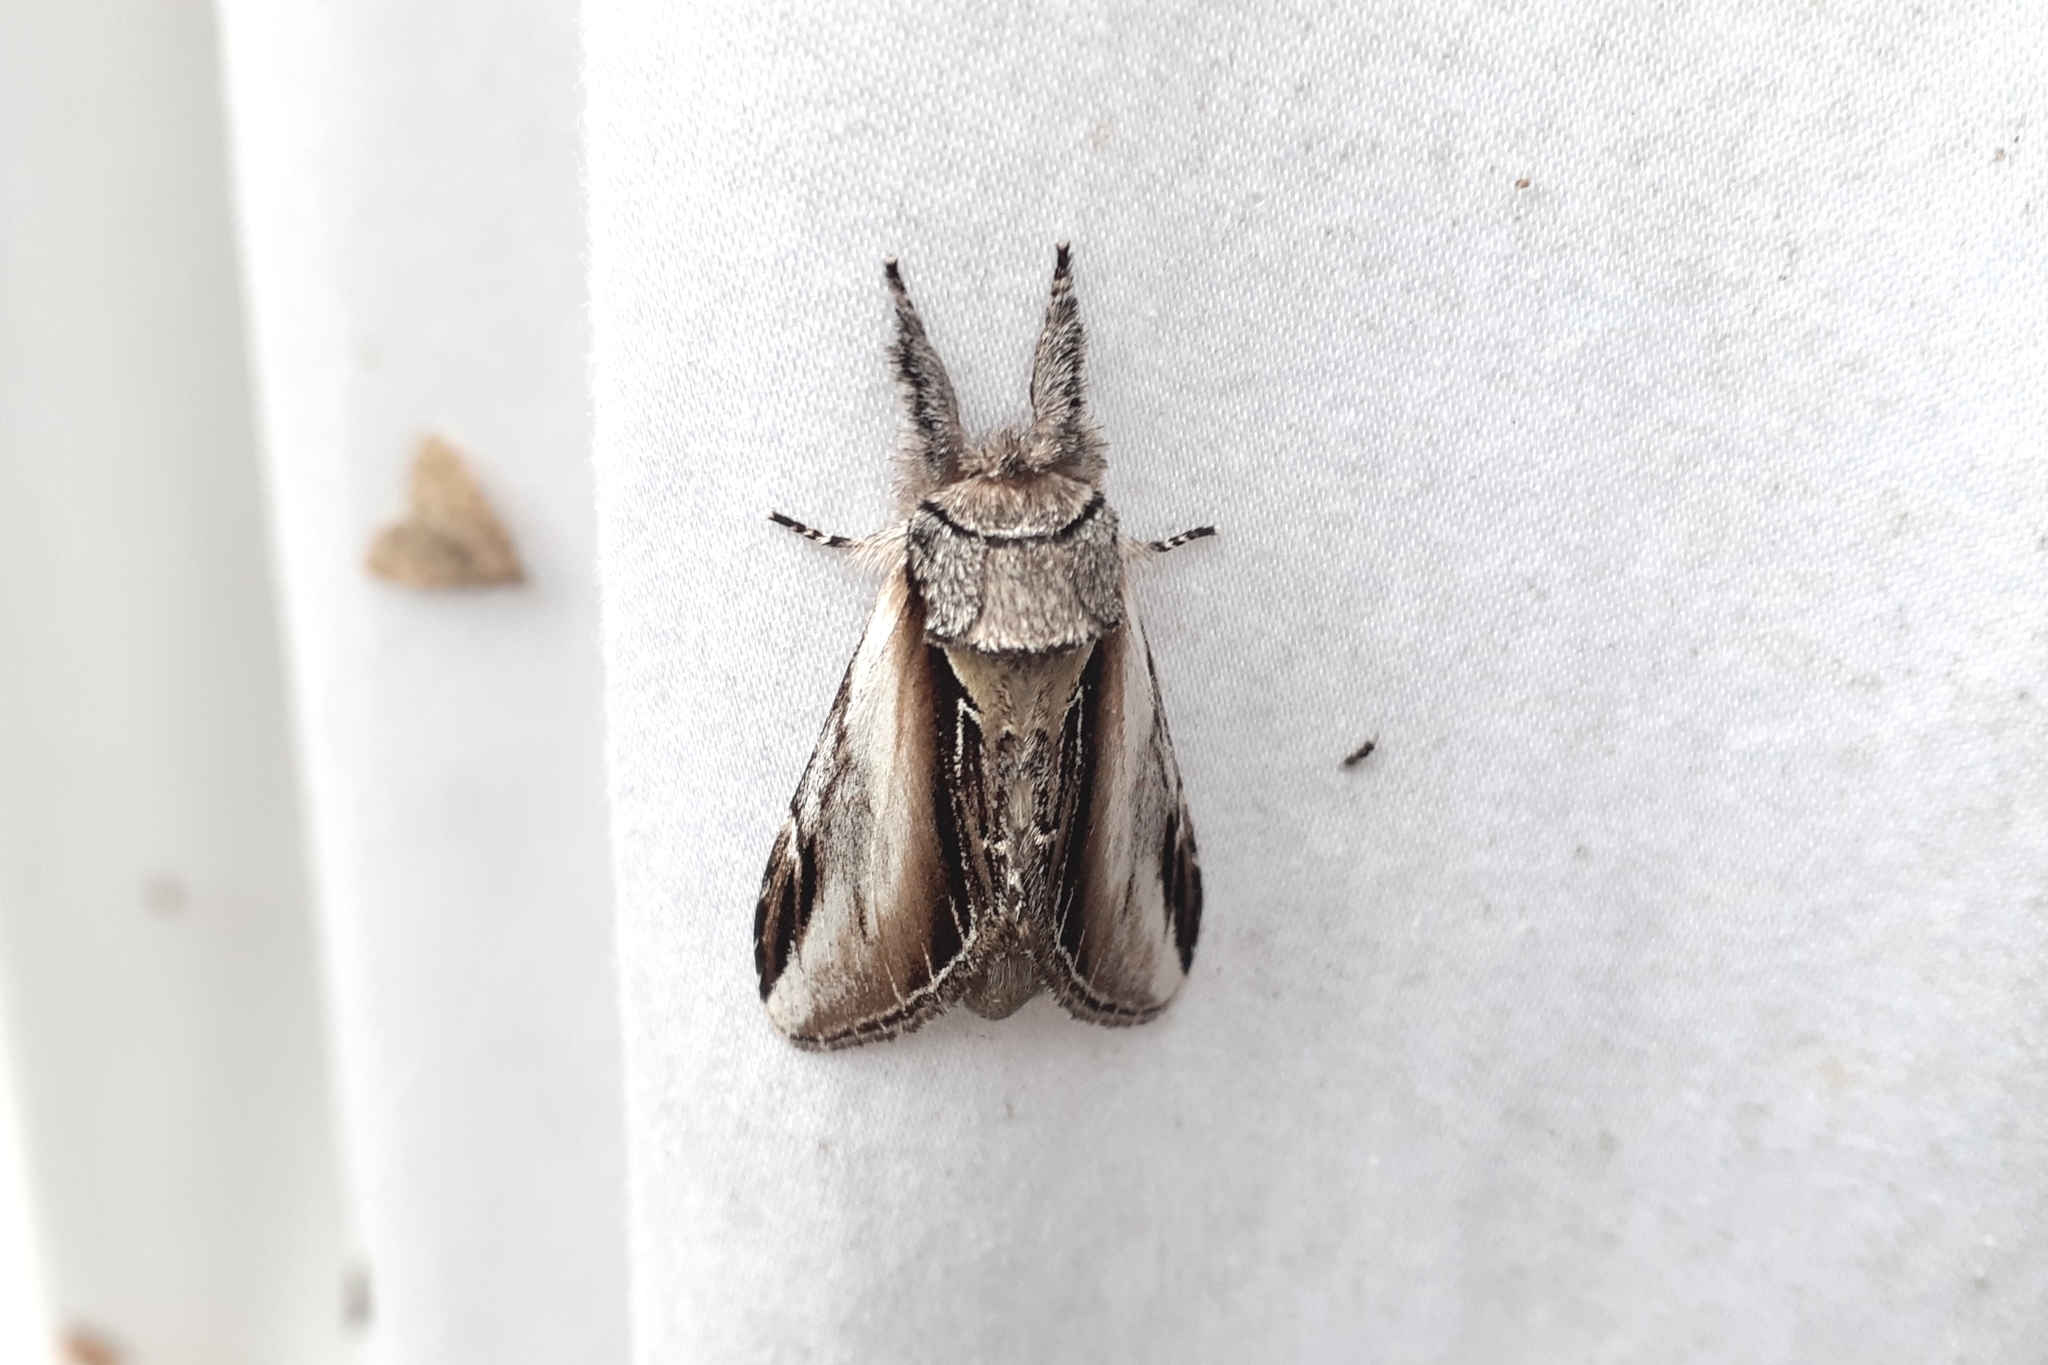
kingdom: Animalia
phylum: Arthropoda
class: Insecta
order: Lepidoptera
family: Notodontidae
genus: Pheosia
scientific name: Pheosia rimosa
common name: Black-rimmed prominent
